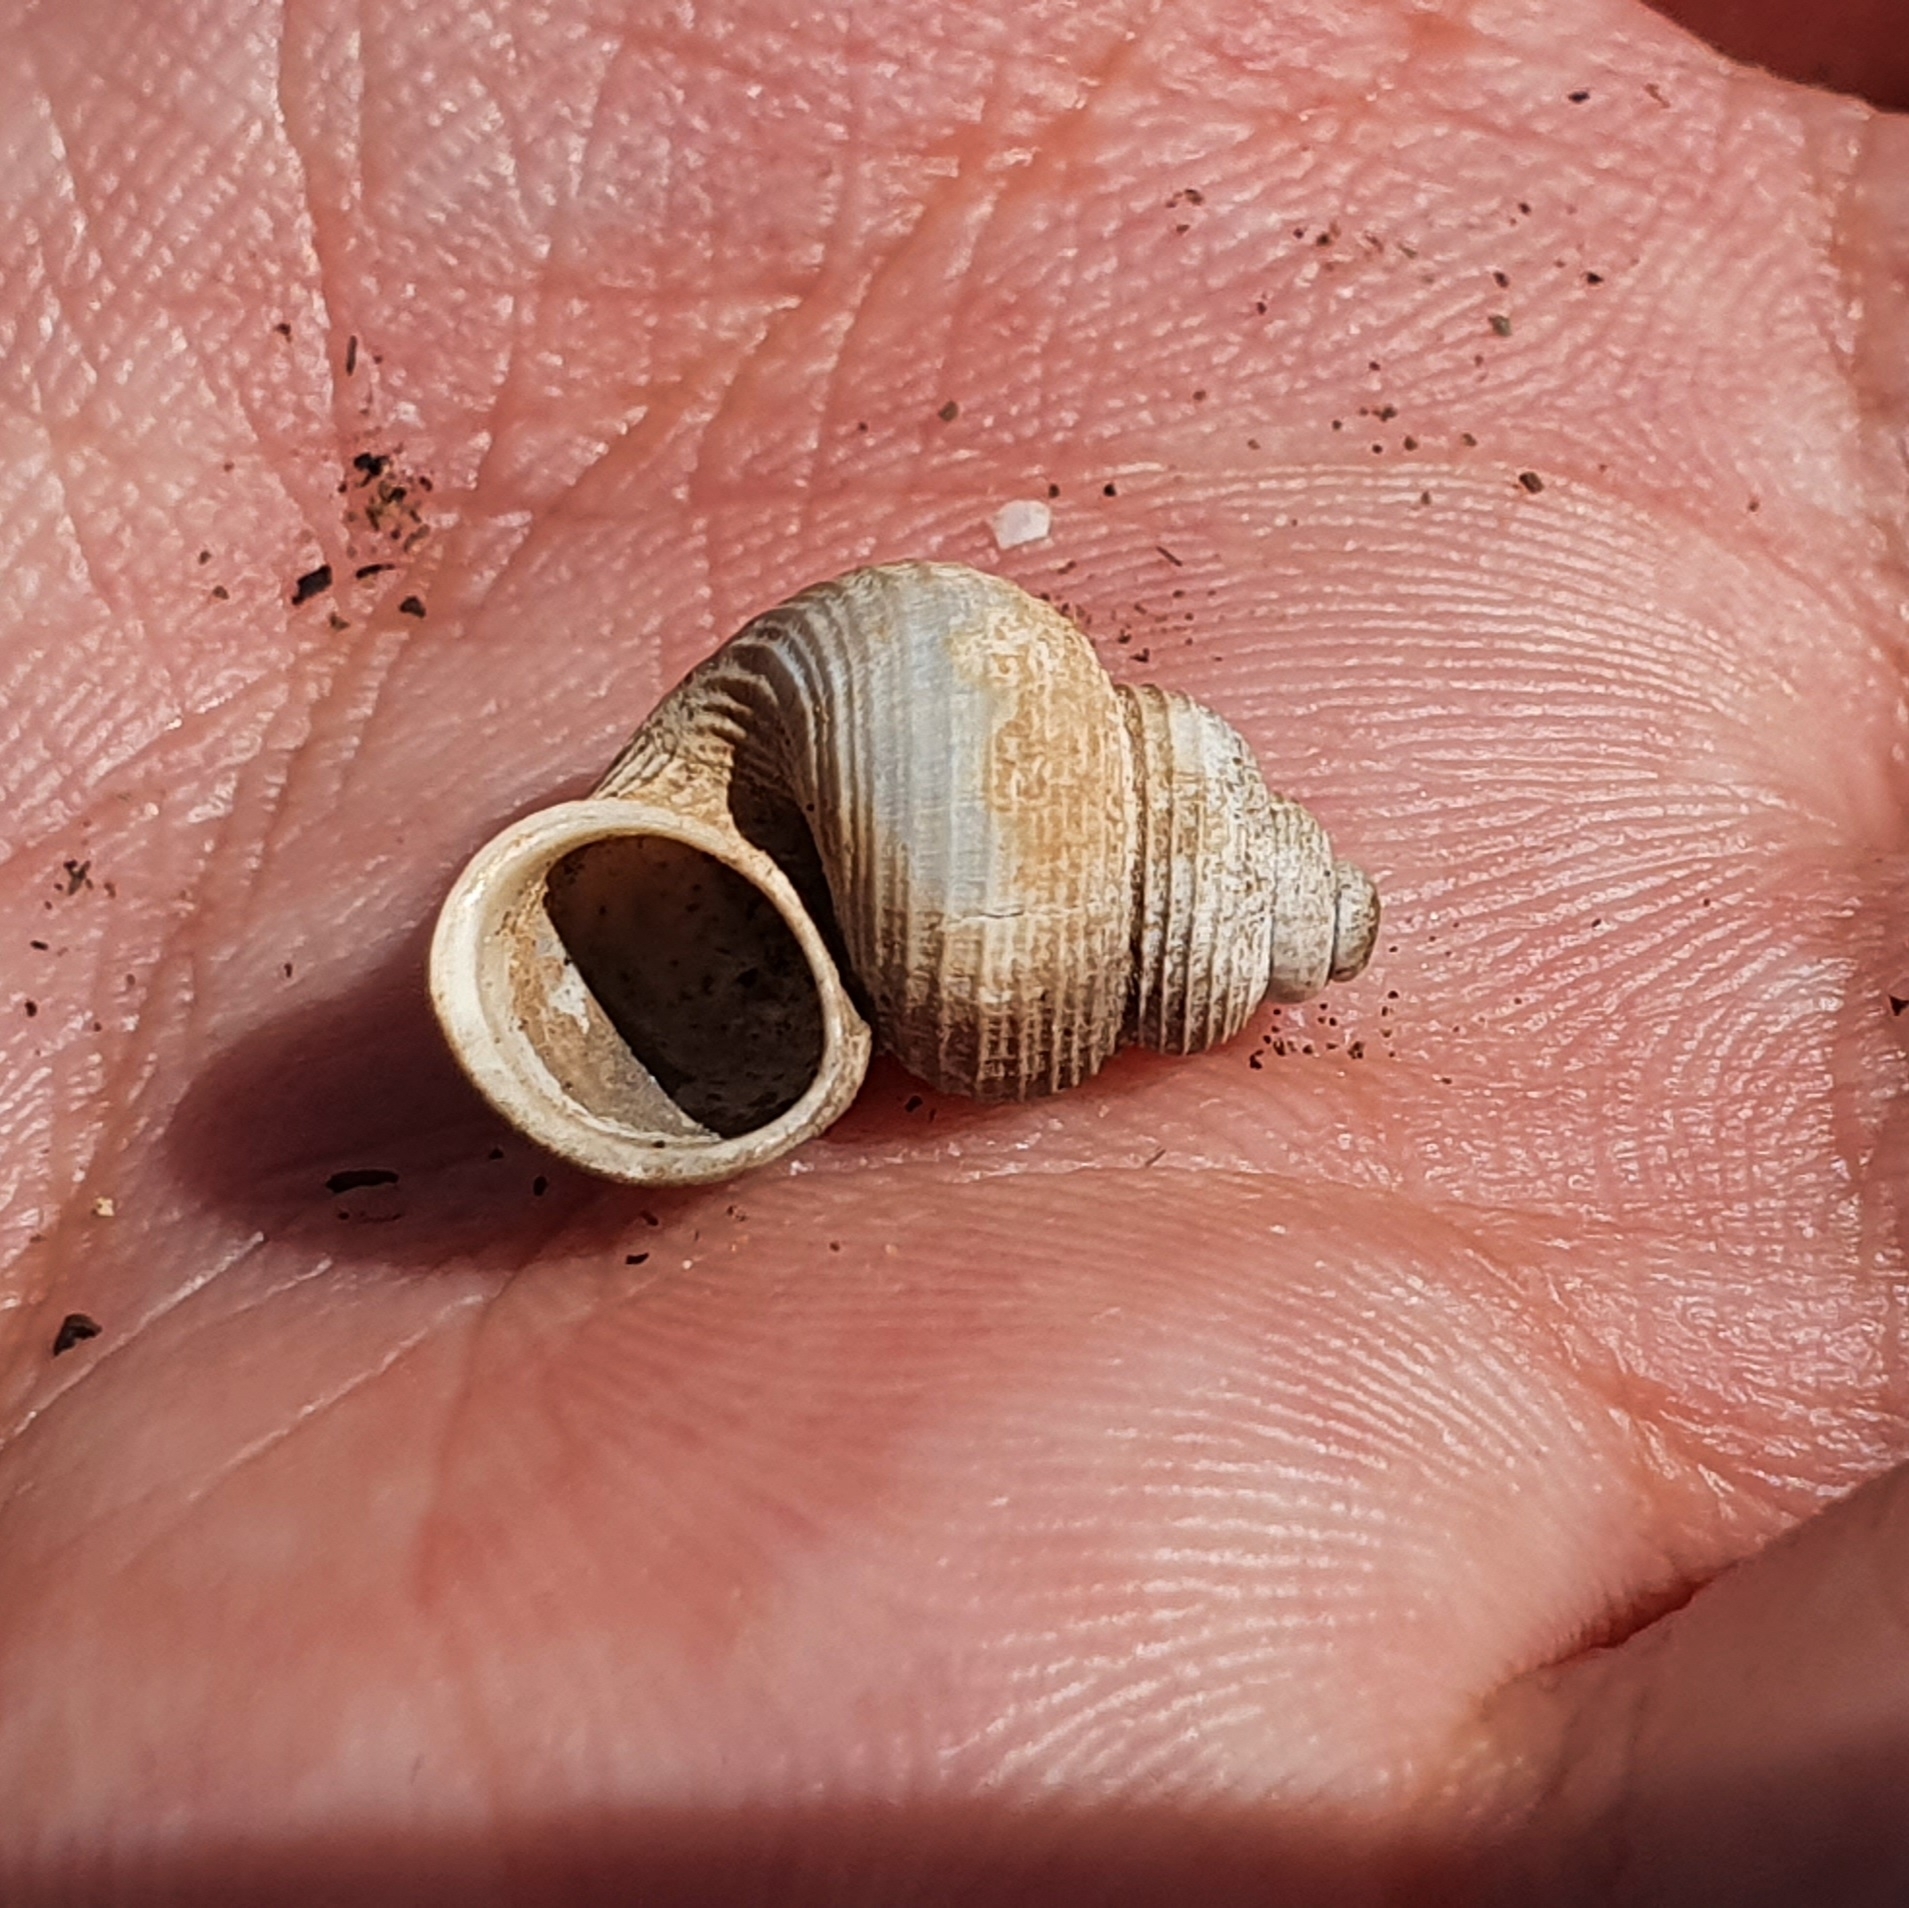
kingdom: Animalia
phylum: Mollusca
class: Gastropoda
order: Littorinimorpha
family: Pomatiidae
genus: Tudorella
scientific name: Tudorella sulcata
